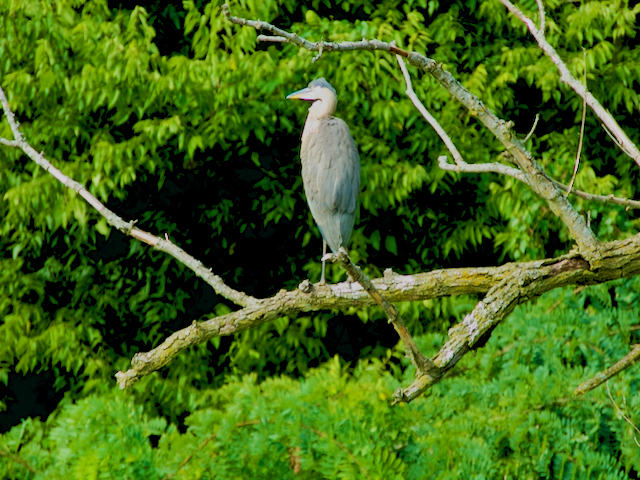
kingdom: Animalia
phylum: Chordata
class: Aves
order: Pelecaniformes
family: Ardeidae
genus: Ardea
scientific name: Ardea herodias
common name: Great blue heron
